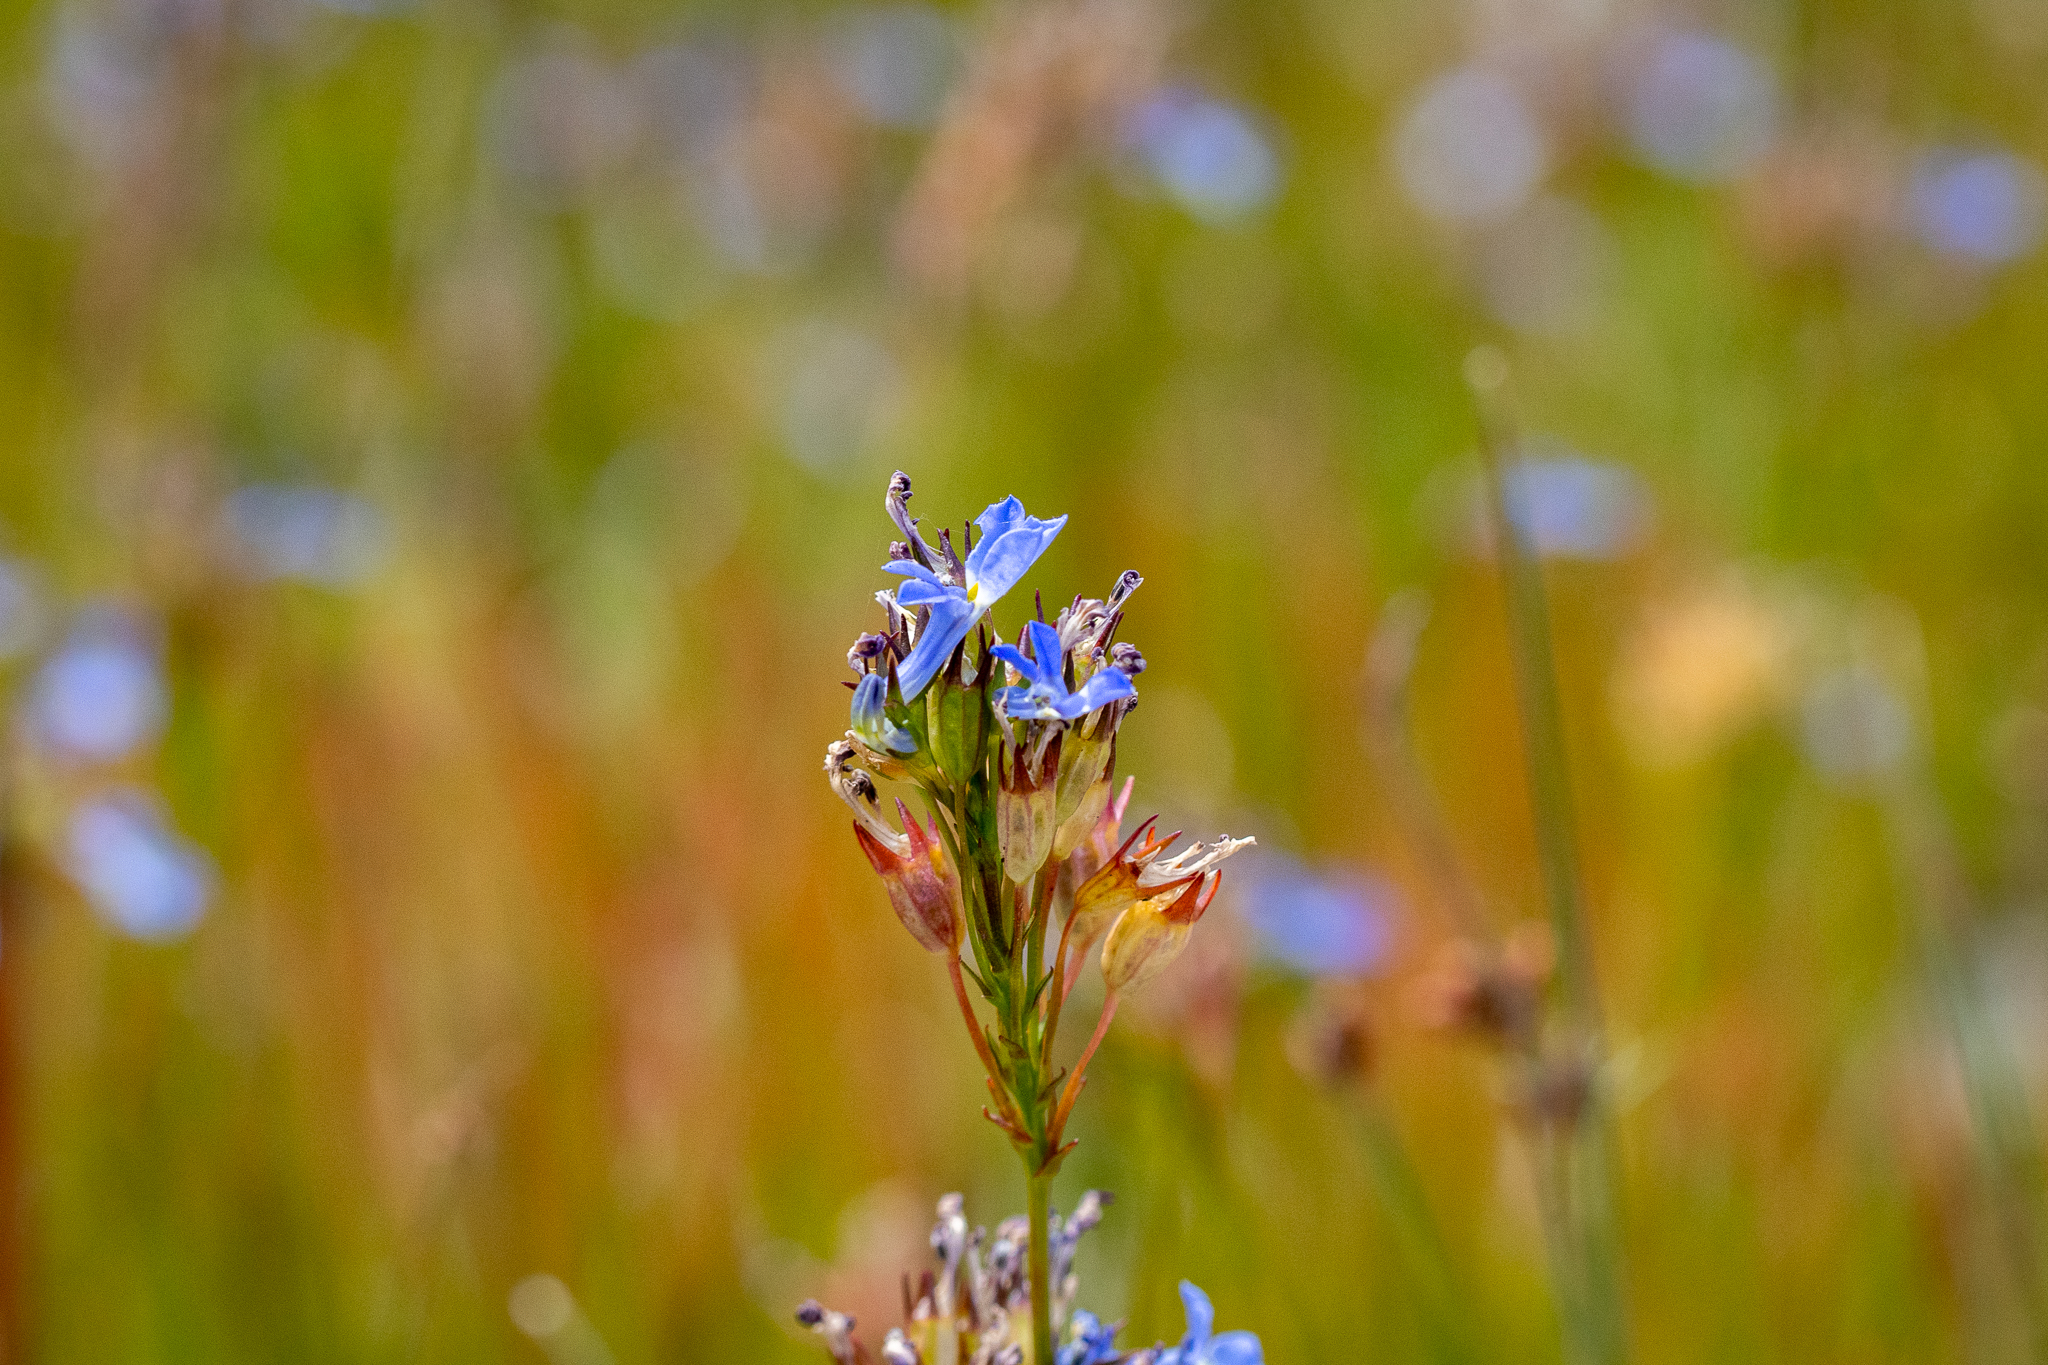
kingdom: Plantae
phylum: Tracheophyta
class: Magnoliopsida
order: Asterales
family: Campanulaceae
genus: Lobelia
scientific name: Lobelia comosa
